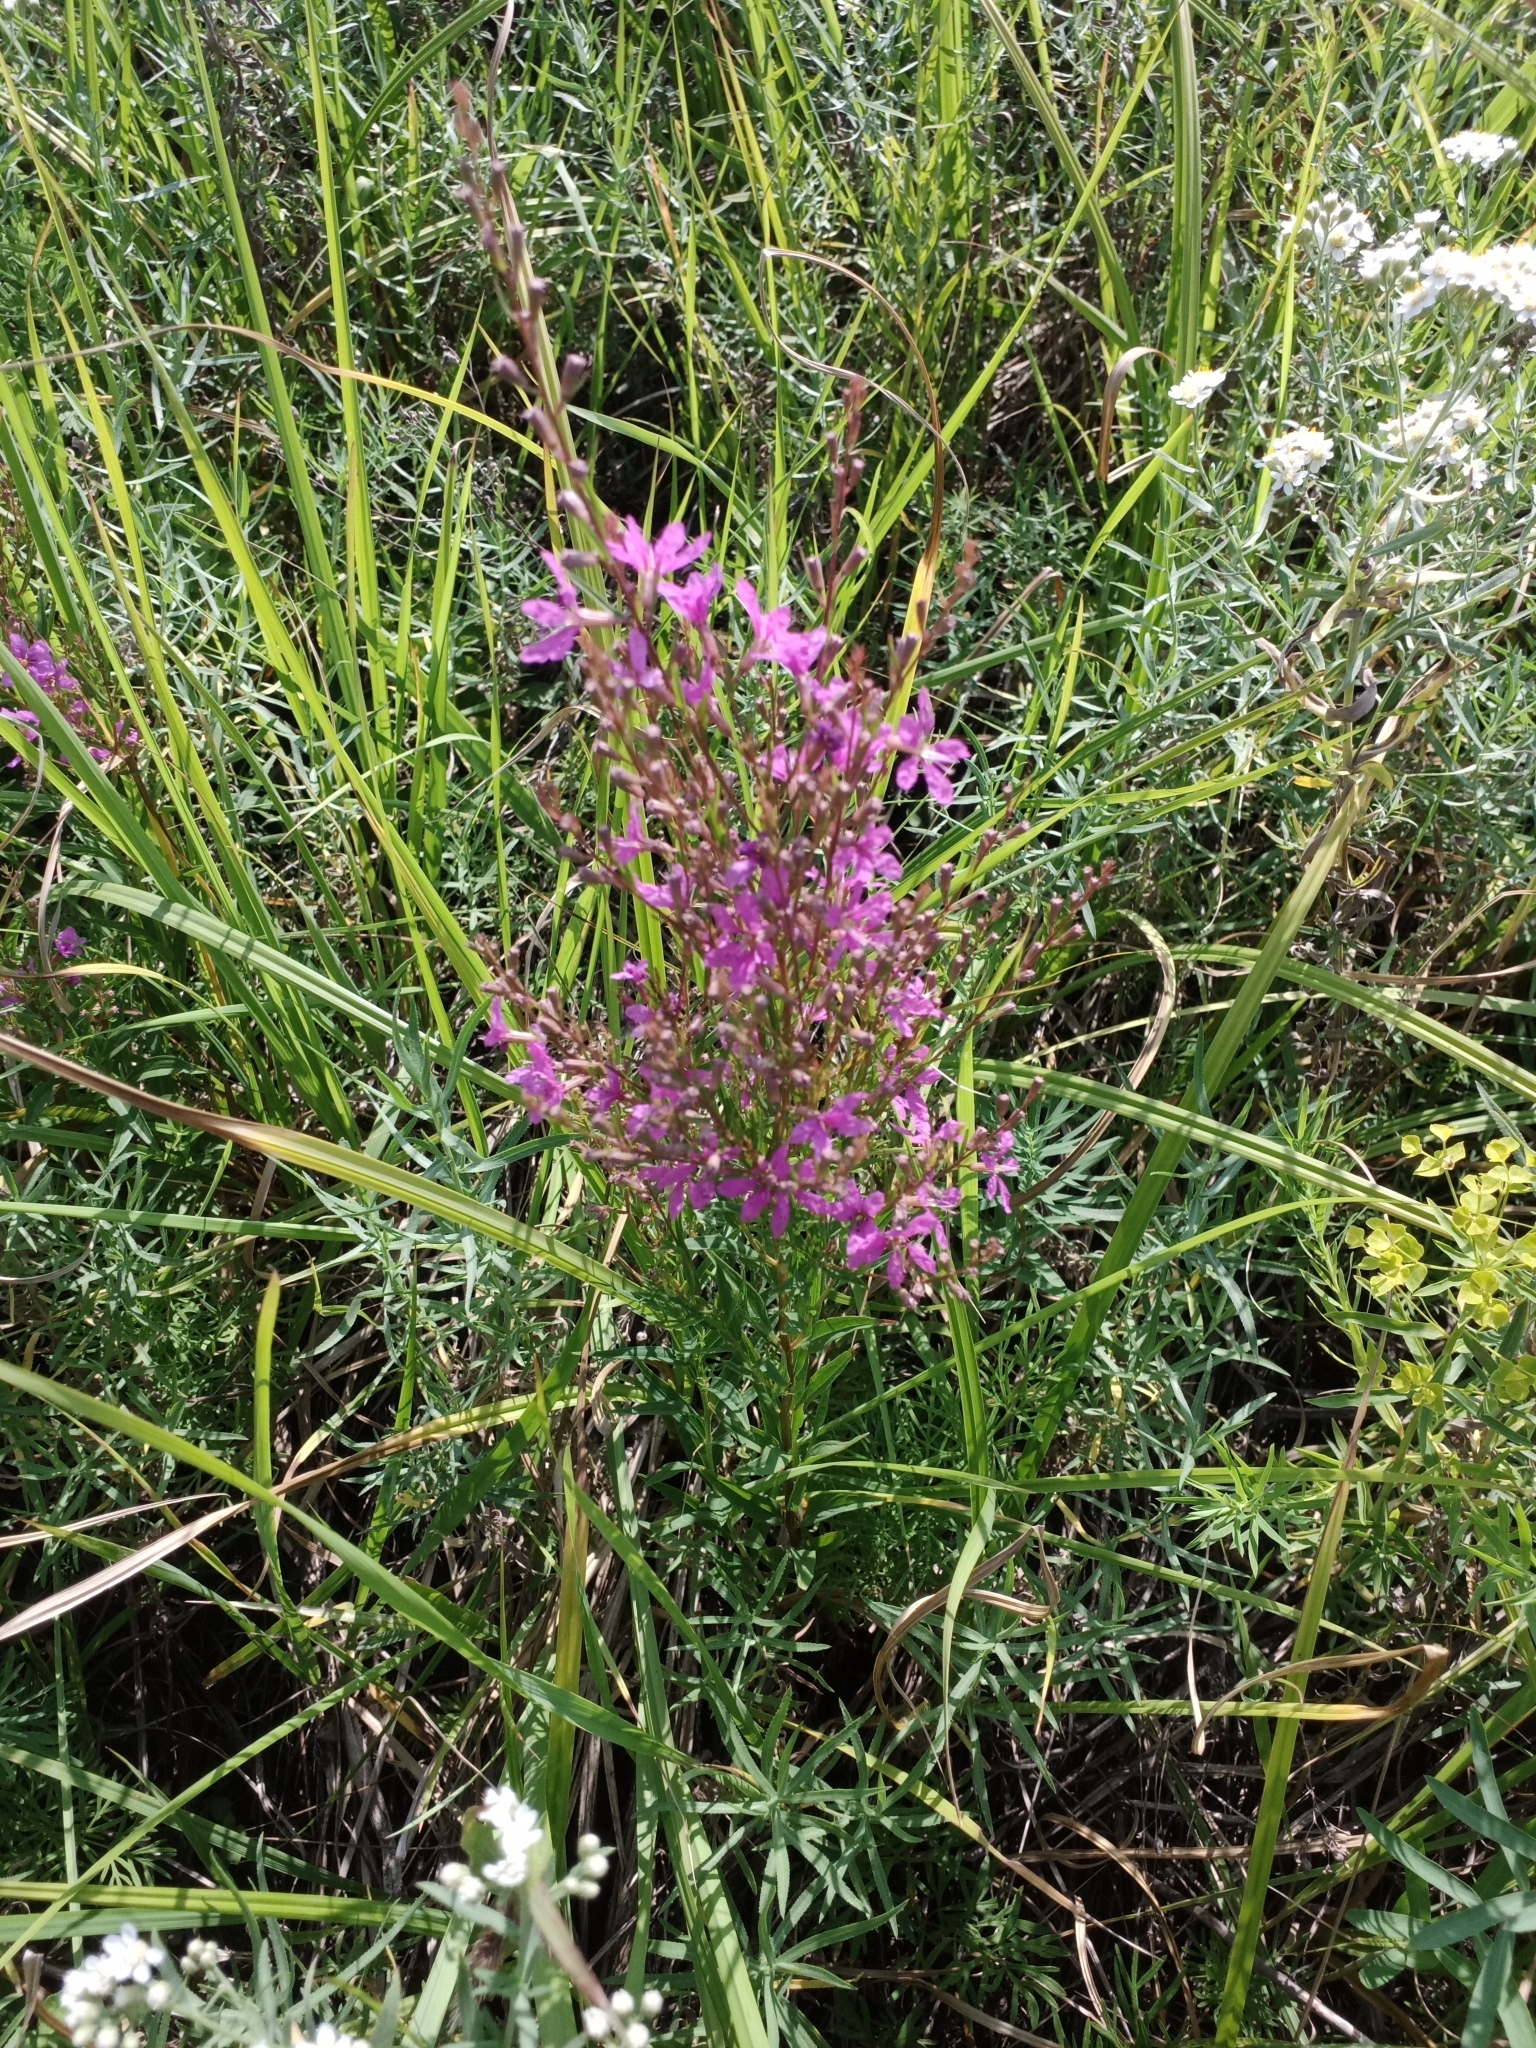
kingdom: Plantae
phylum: Tracheophyta
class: Magnoliopsida
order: Myrtales
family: Lythraceae
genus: Lythrum
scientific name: Lythrum virgatum
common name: European wand loosestrife
